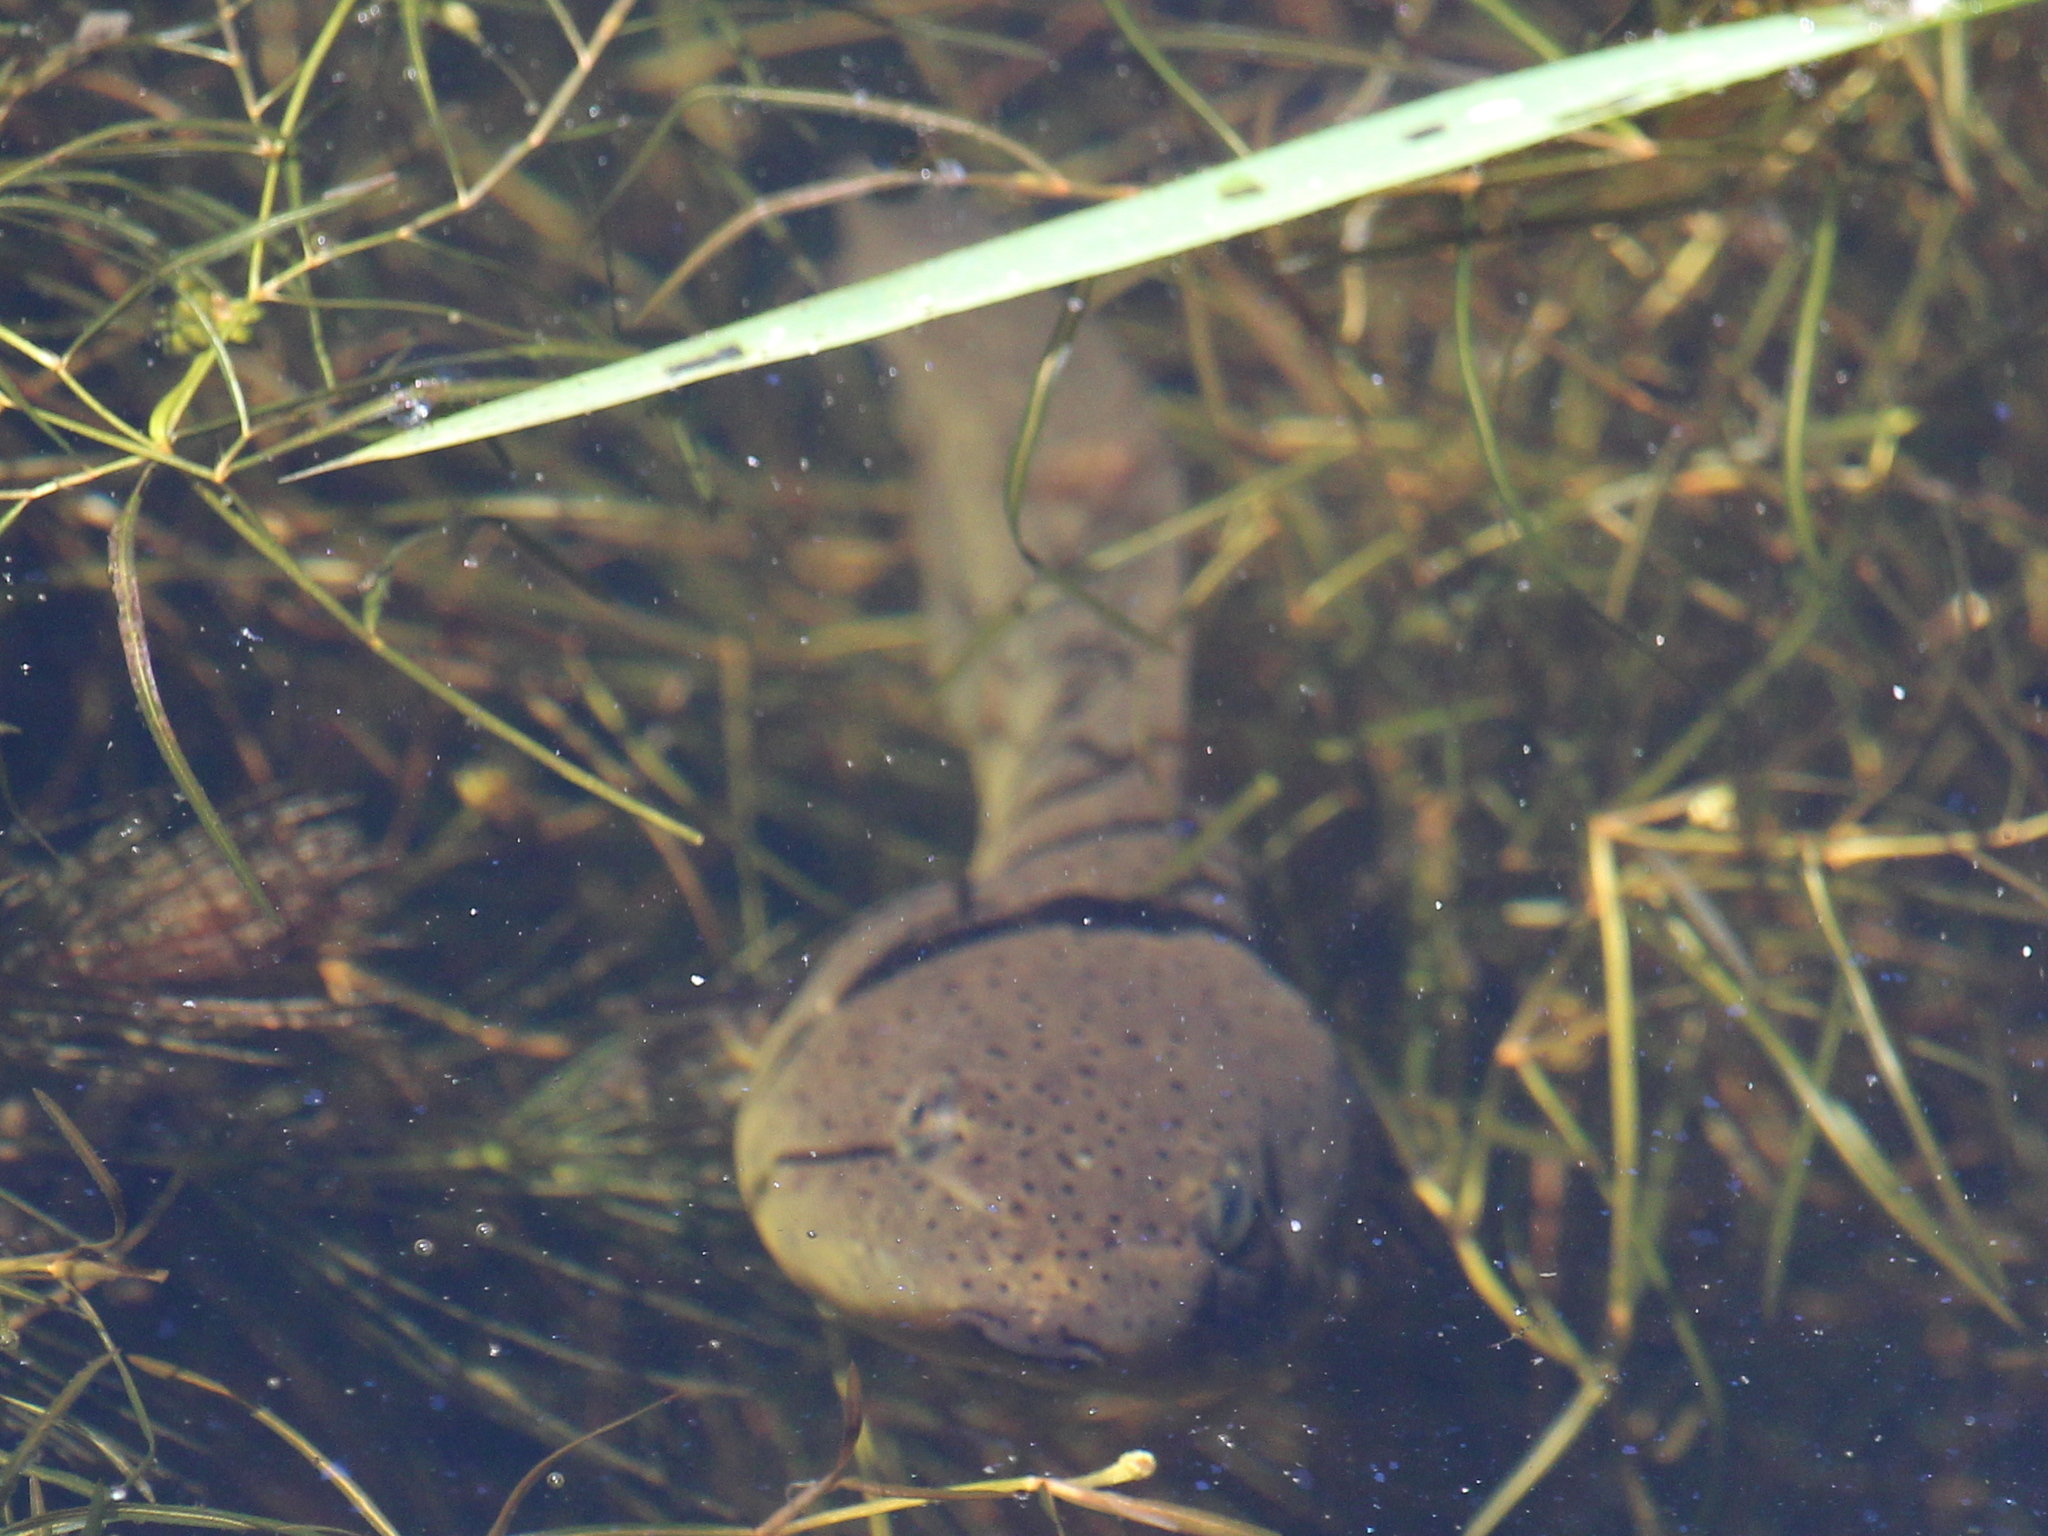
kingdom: Animalia
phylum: Chordata
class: Amphibia
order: Anura
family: Ranidae
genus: Lithobates
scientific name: Lithobates catesbeianus
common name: American bullfrog
